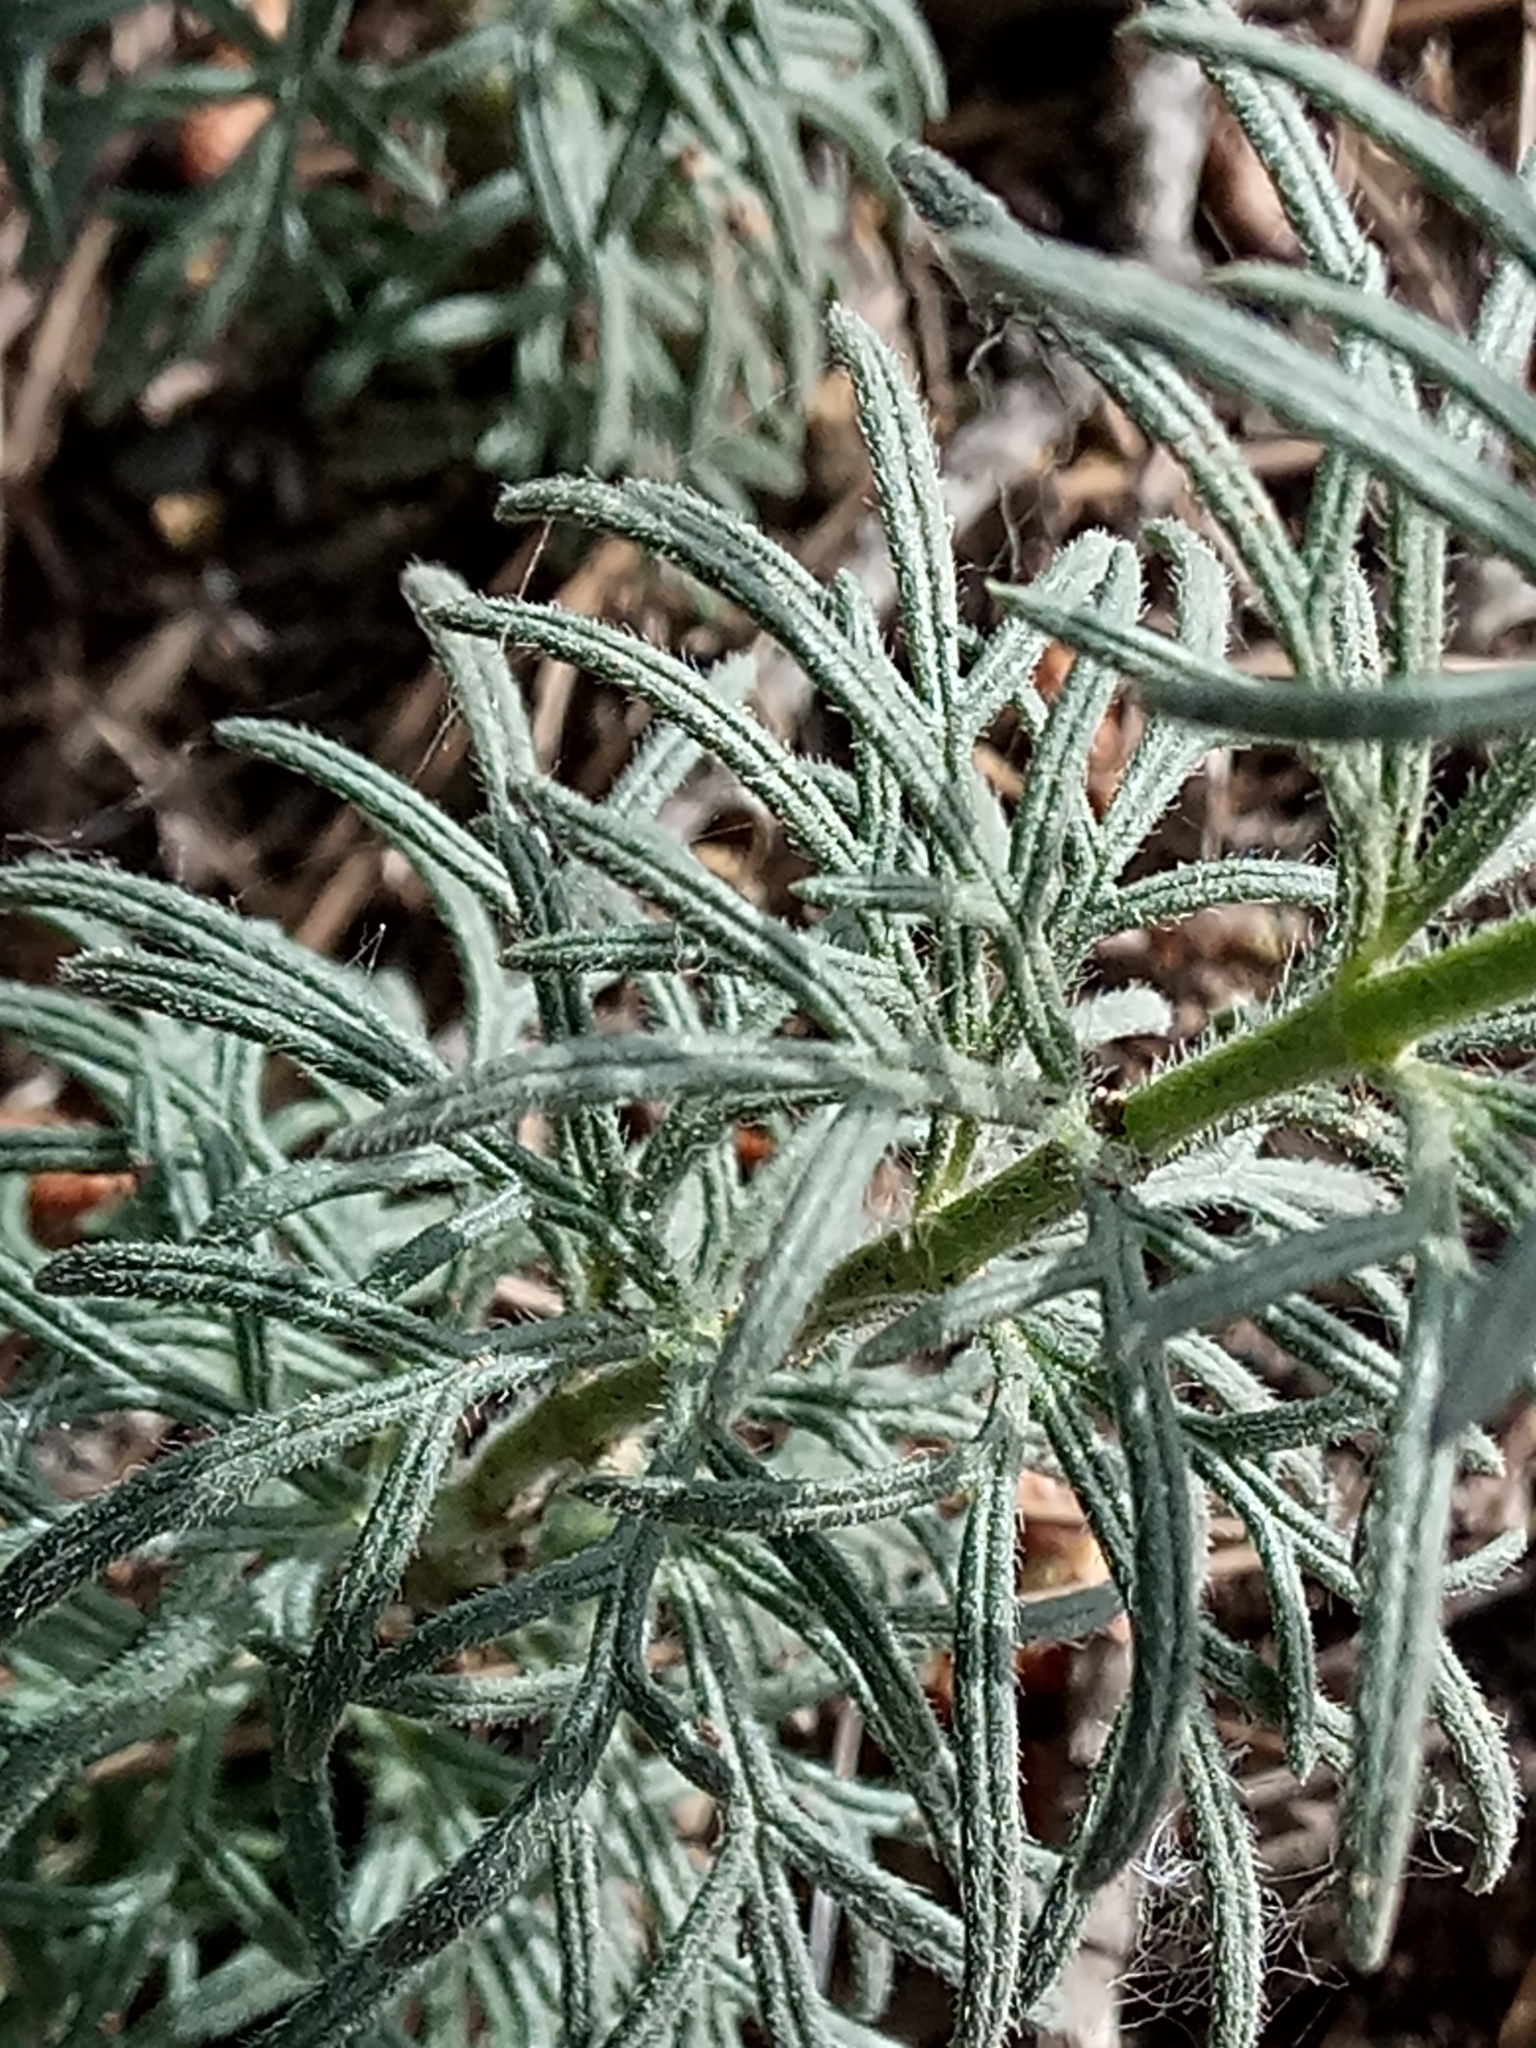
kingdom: Plantae
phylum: Tracheophyta
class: Magnoliopsida
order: Lamiales
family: Lamiaceae
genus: Teucrium
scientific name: Teucrium pseudochamaepitys
